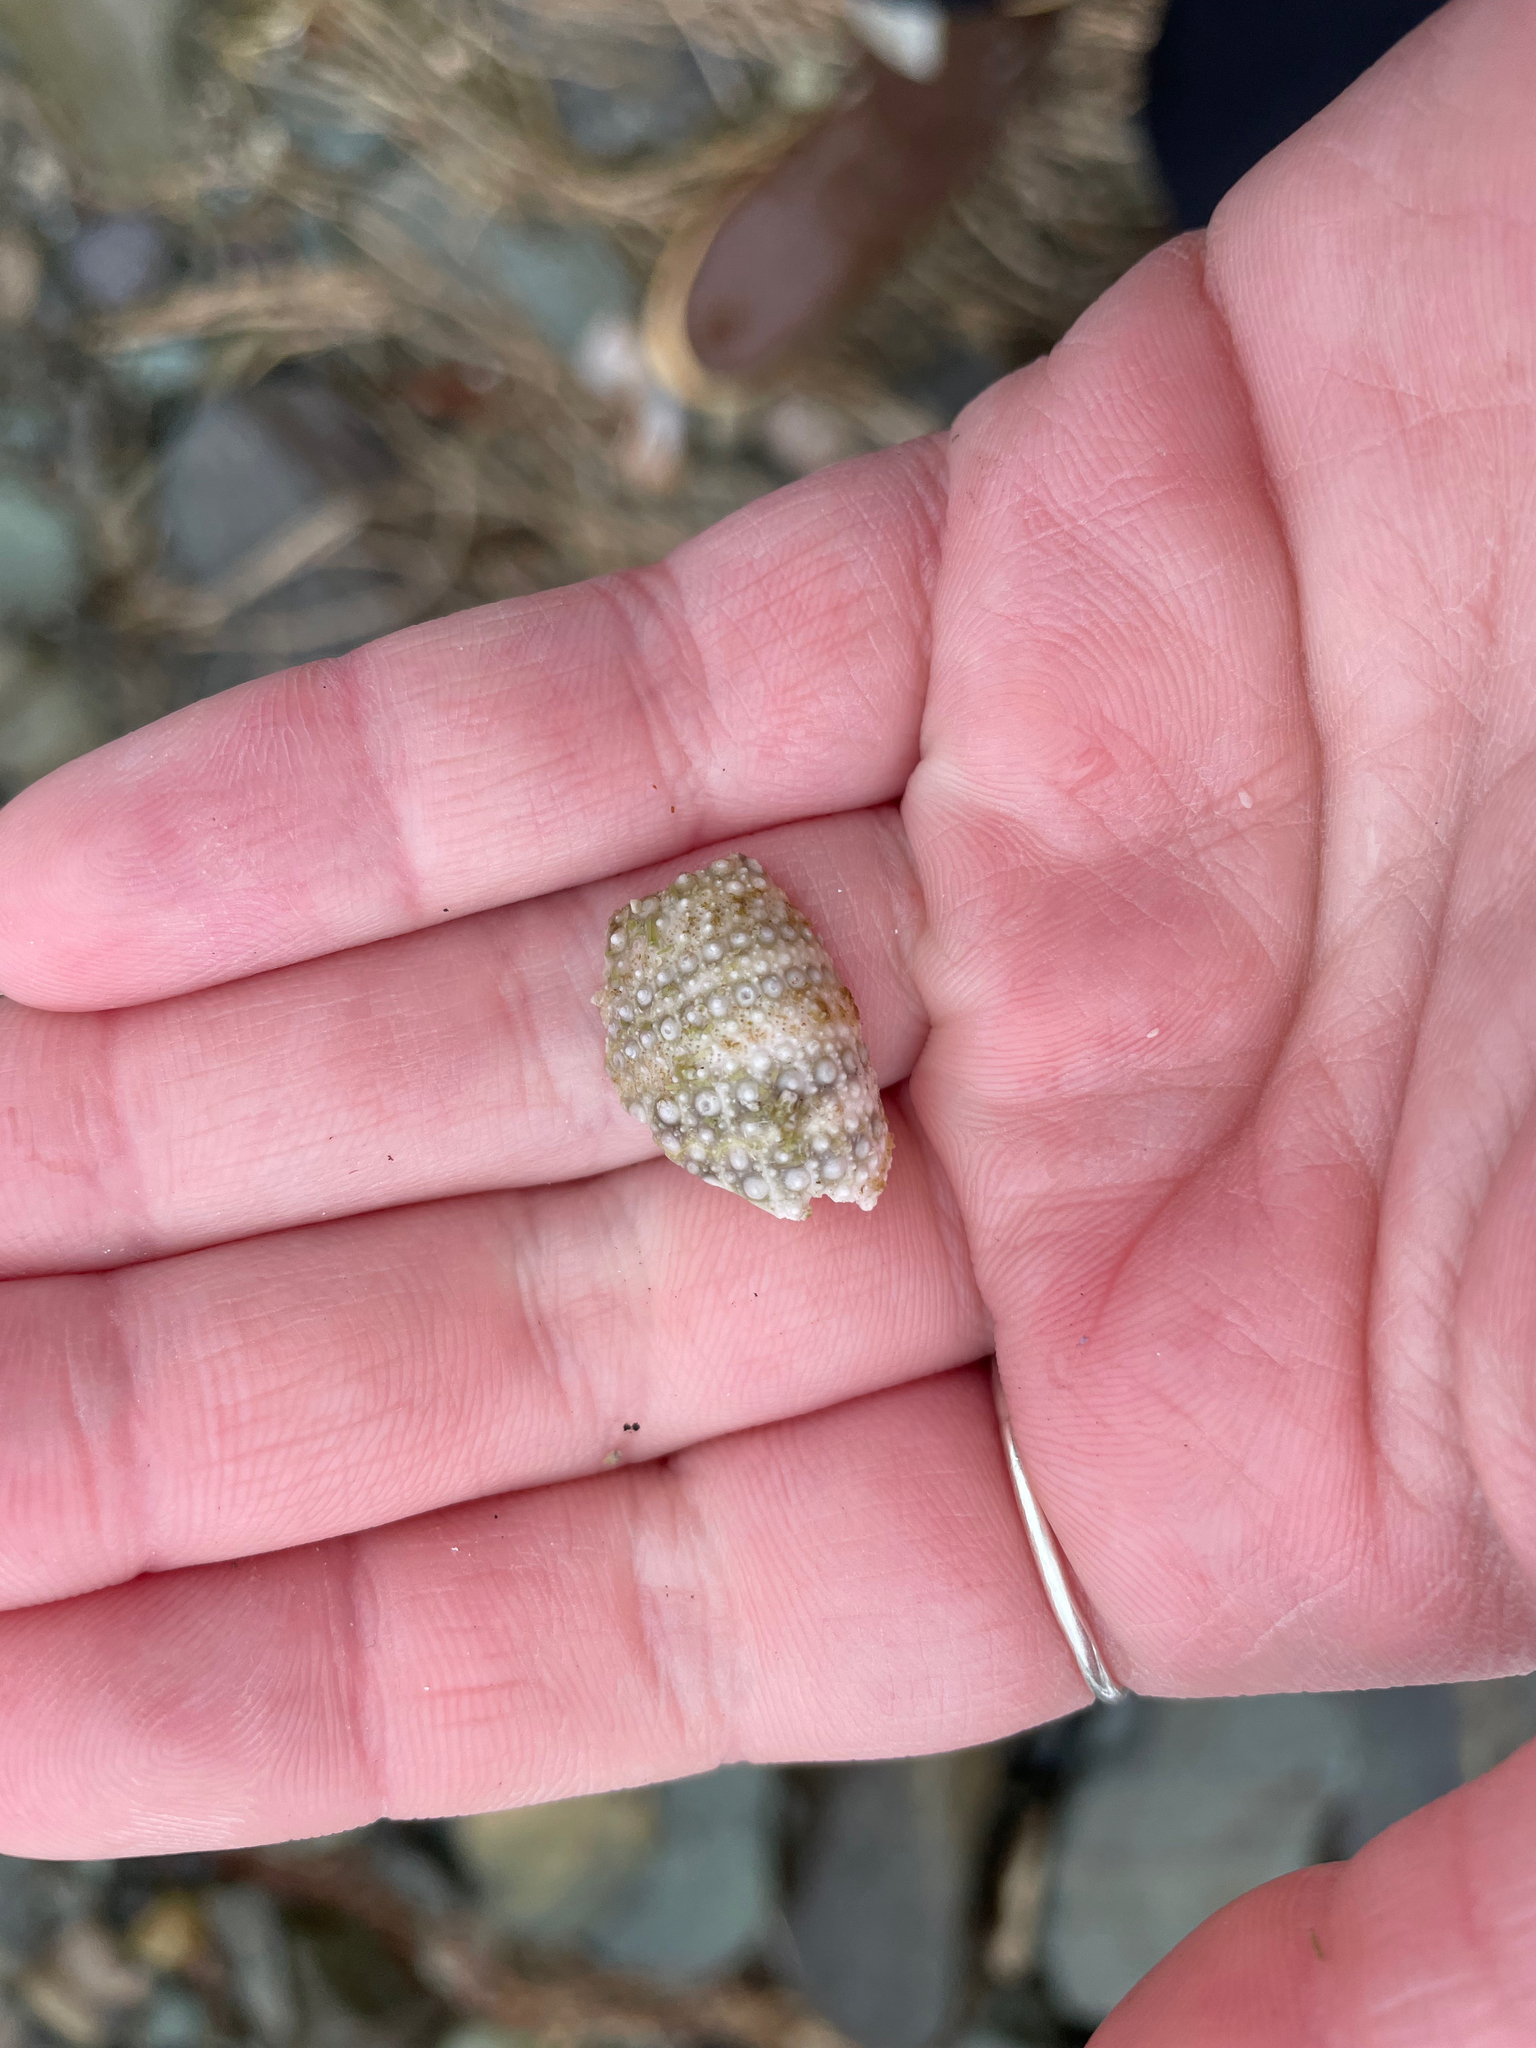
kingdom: Animalia
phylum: Echinodermata
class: Echinoidea
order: Camarodonta
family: Strongylocentrotidae
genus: Strongylocentrotus
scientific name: Strongylocentrotus droebachiensis
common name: Northern sea urchin
